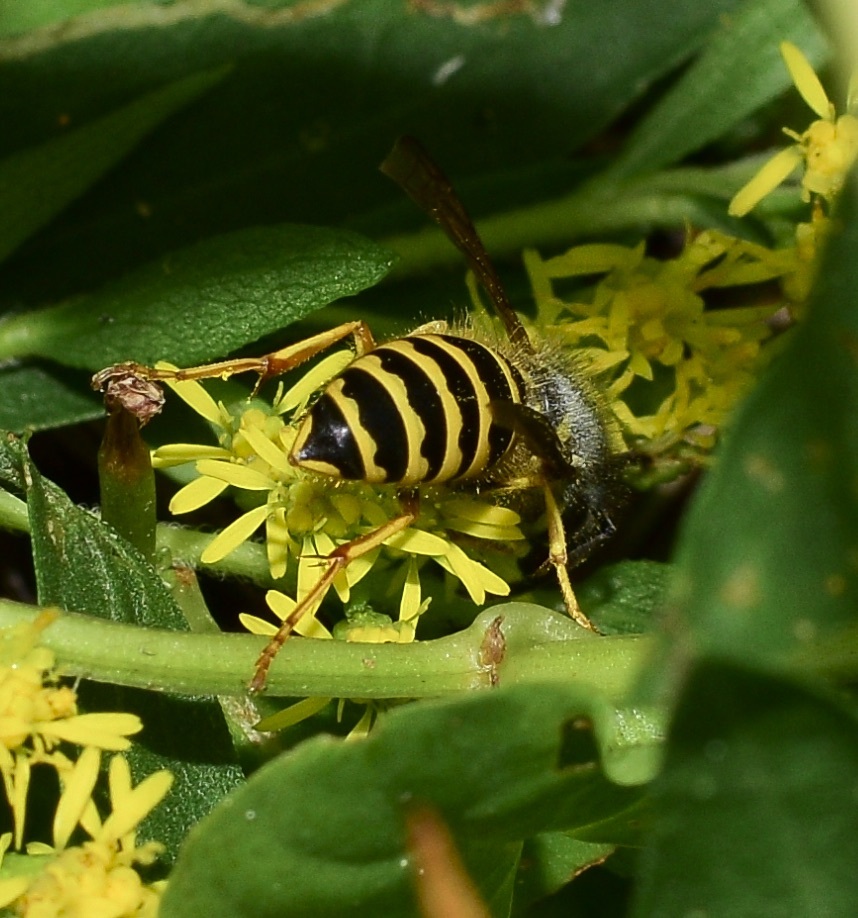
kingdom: Animalia
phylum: Arthropoda
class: Insecta
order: Hymenoptera
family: Vespidae
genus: Vespula
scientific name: Vespula maculifrons
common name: Eastern yellowjacket
